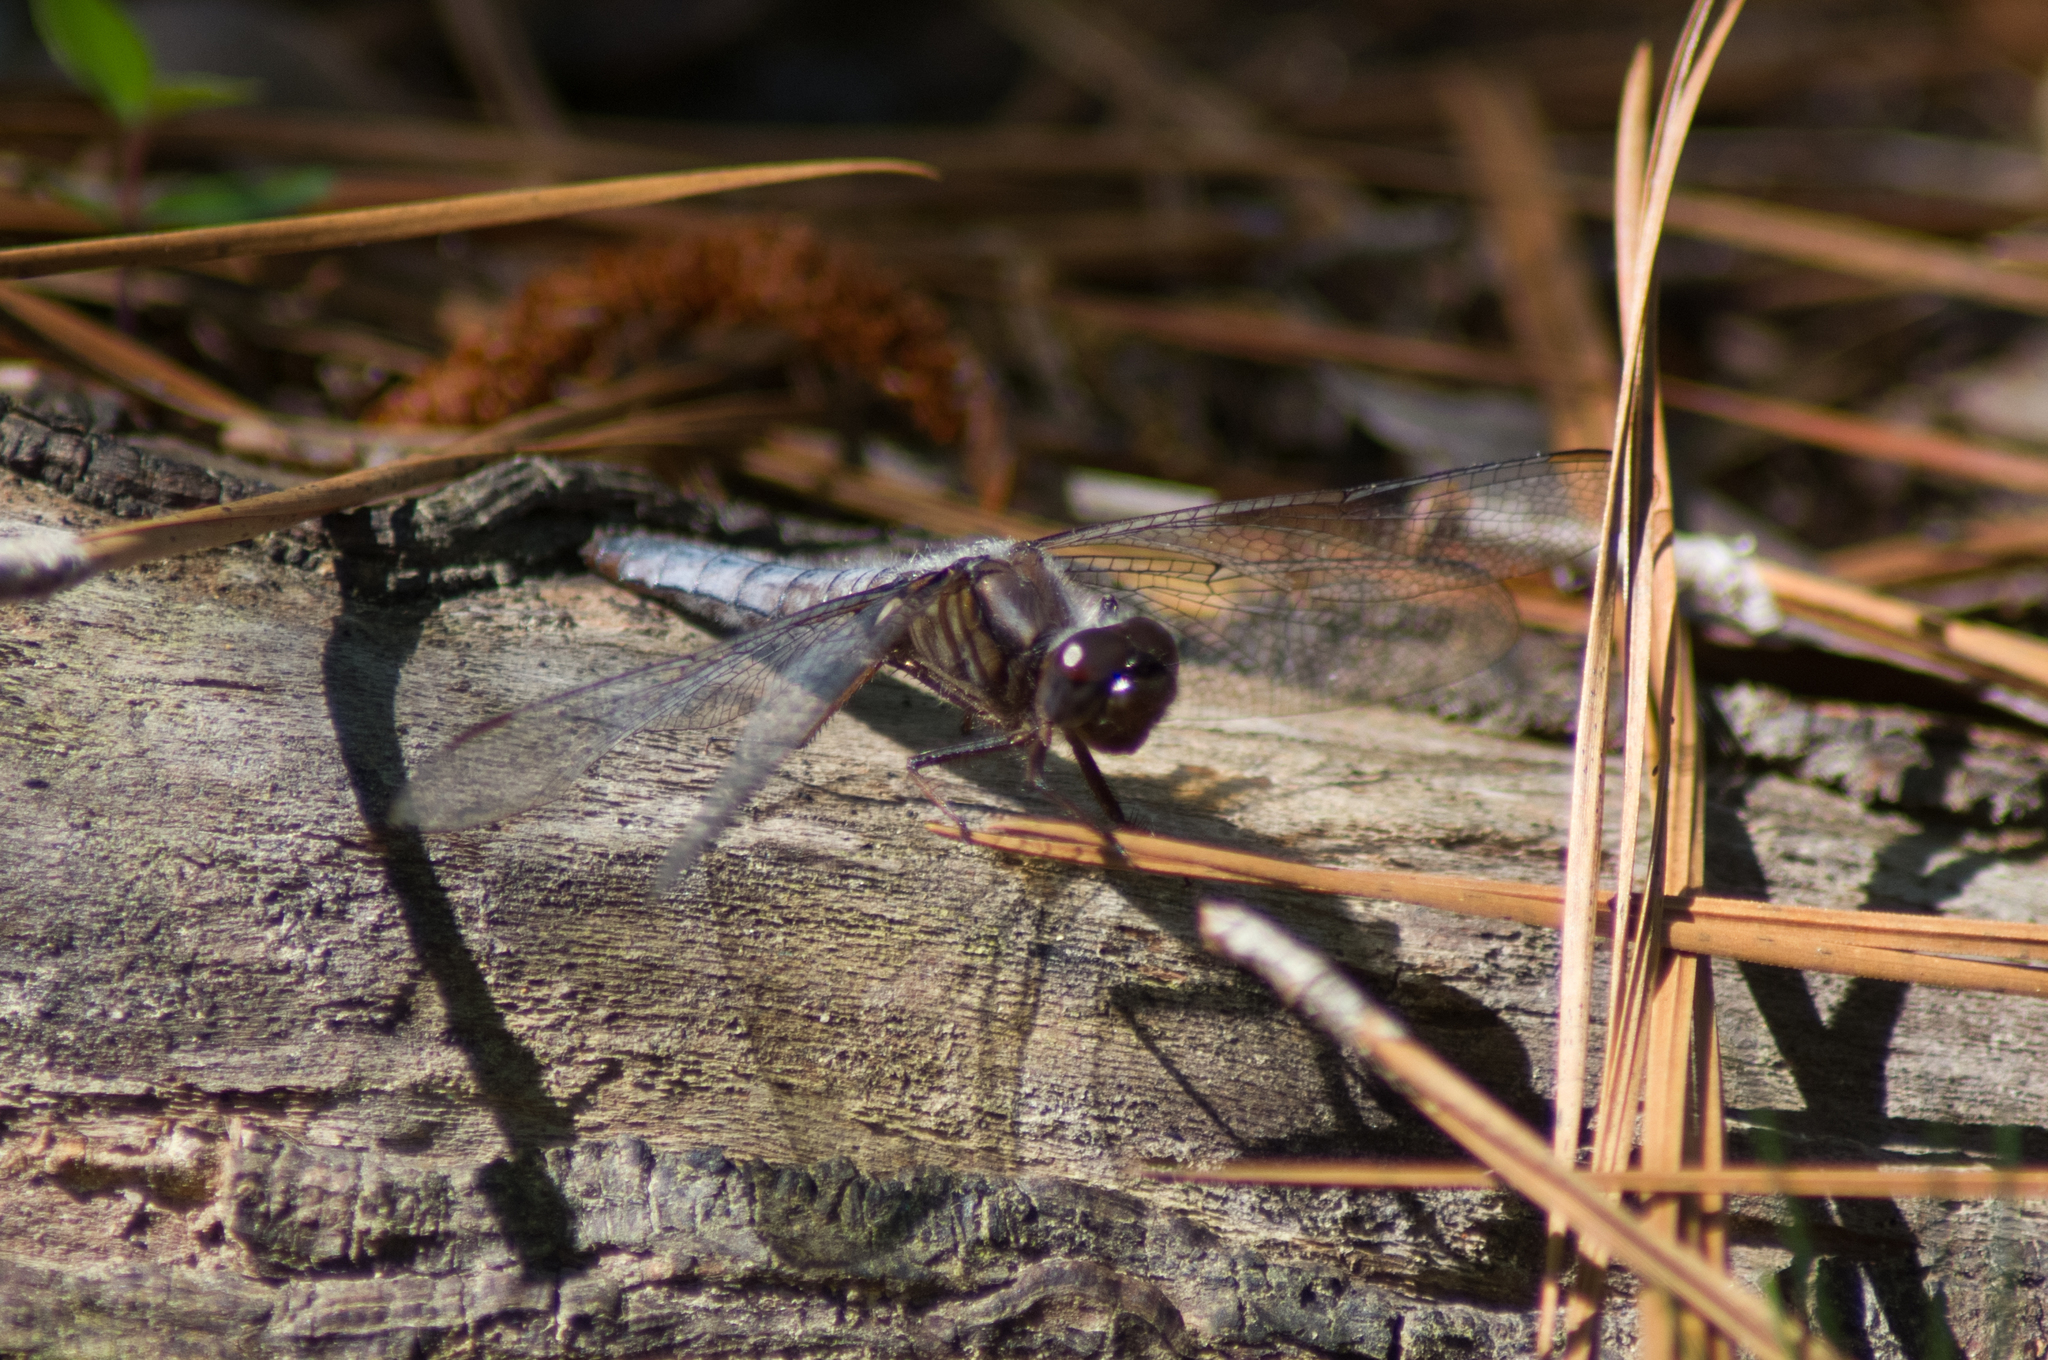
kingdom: Animalia
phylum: Arthropoda
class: Insecta
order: Odonata
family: Libellulidae
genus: Ladona
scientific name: Ladona deplanata
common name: Blue corporal
